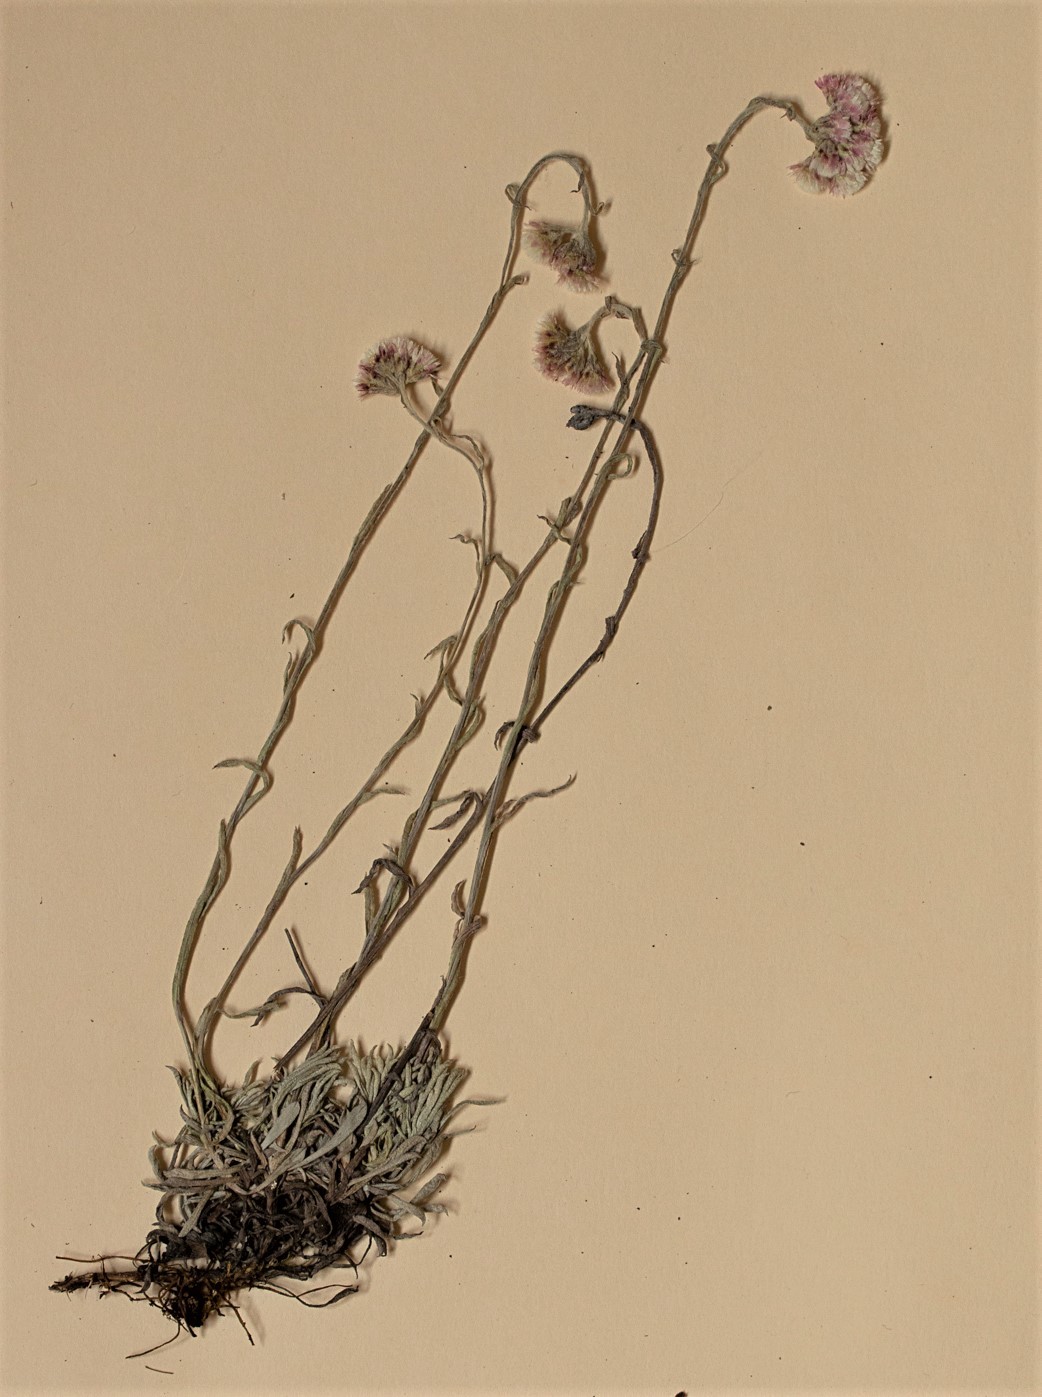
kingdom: Plantae
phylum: Tracheophyta
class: Magnoliopsida
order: Asterales
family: Asteraceae
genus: Antennaria
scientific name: Antennaria rosea
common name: Rosy pussytoes
